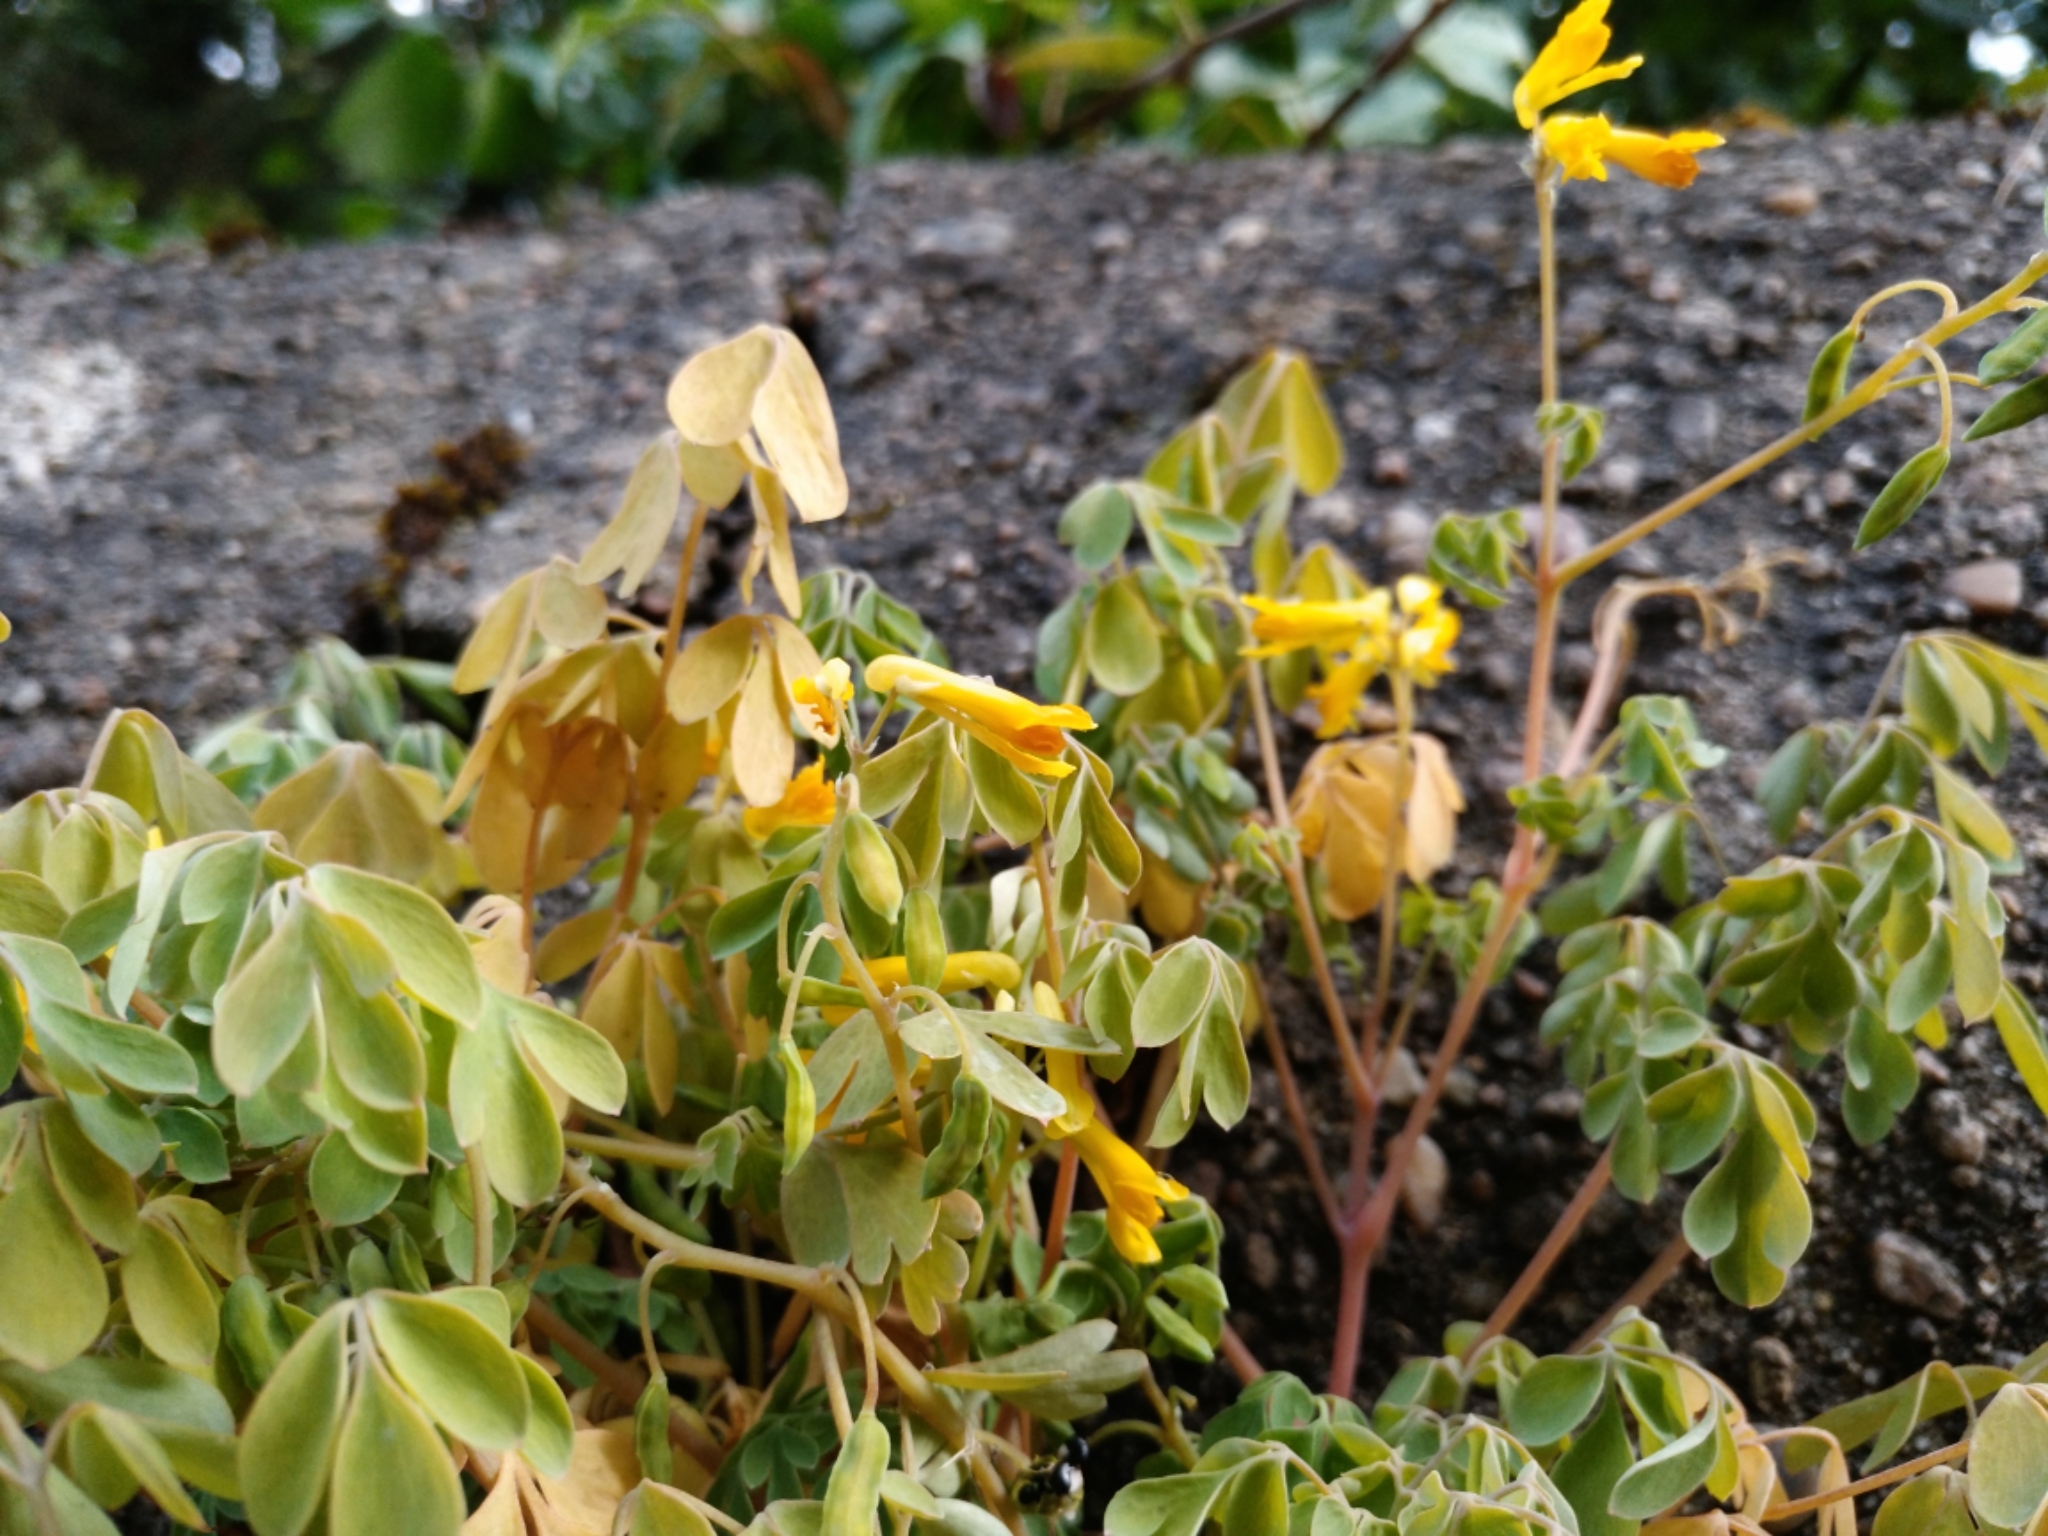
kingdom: Plantae
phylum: Tracheophyta
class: Magnoliopsida
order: Ranunculales
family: Papaveraceae
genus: Pseudofumaria
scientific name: Pseudofumaria lutea
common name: Yellow corydalis
